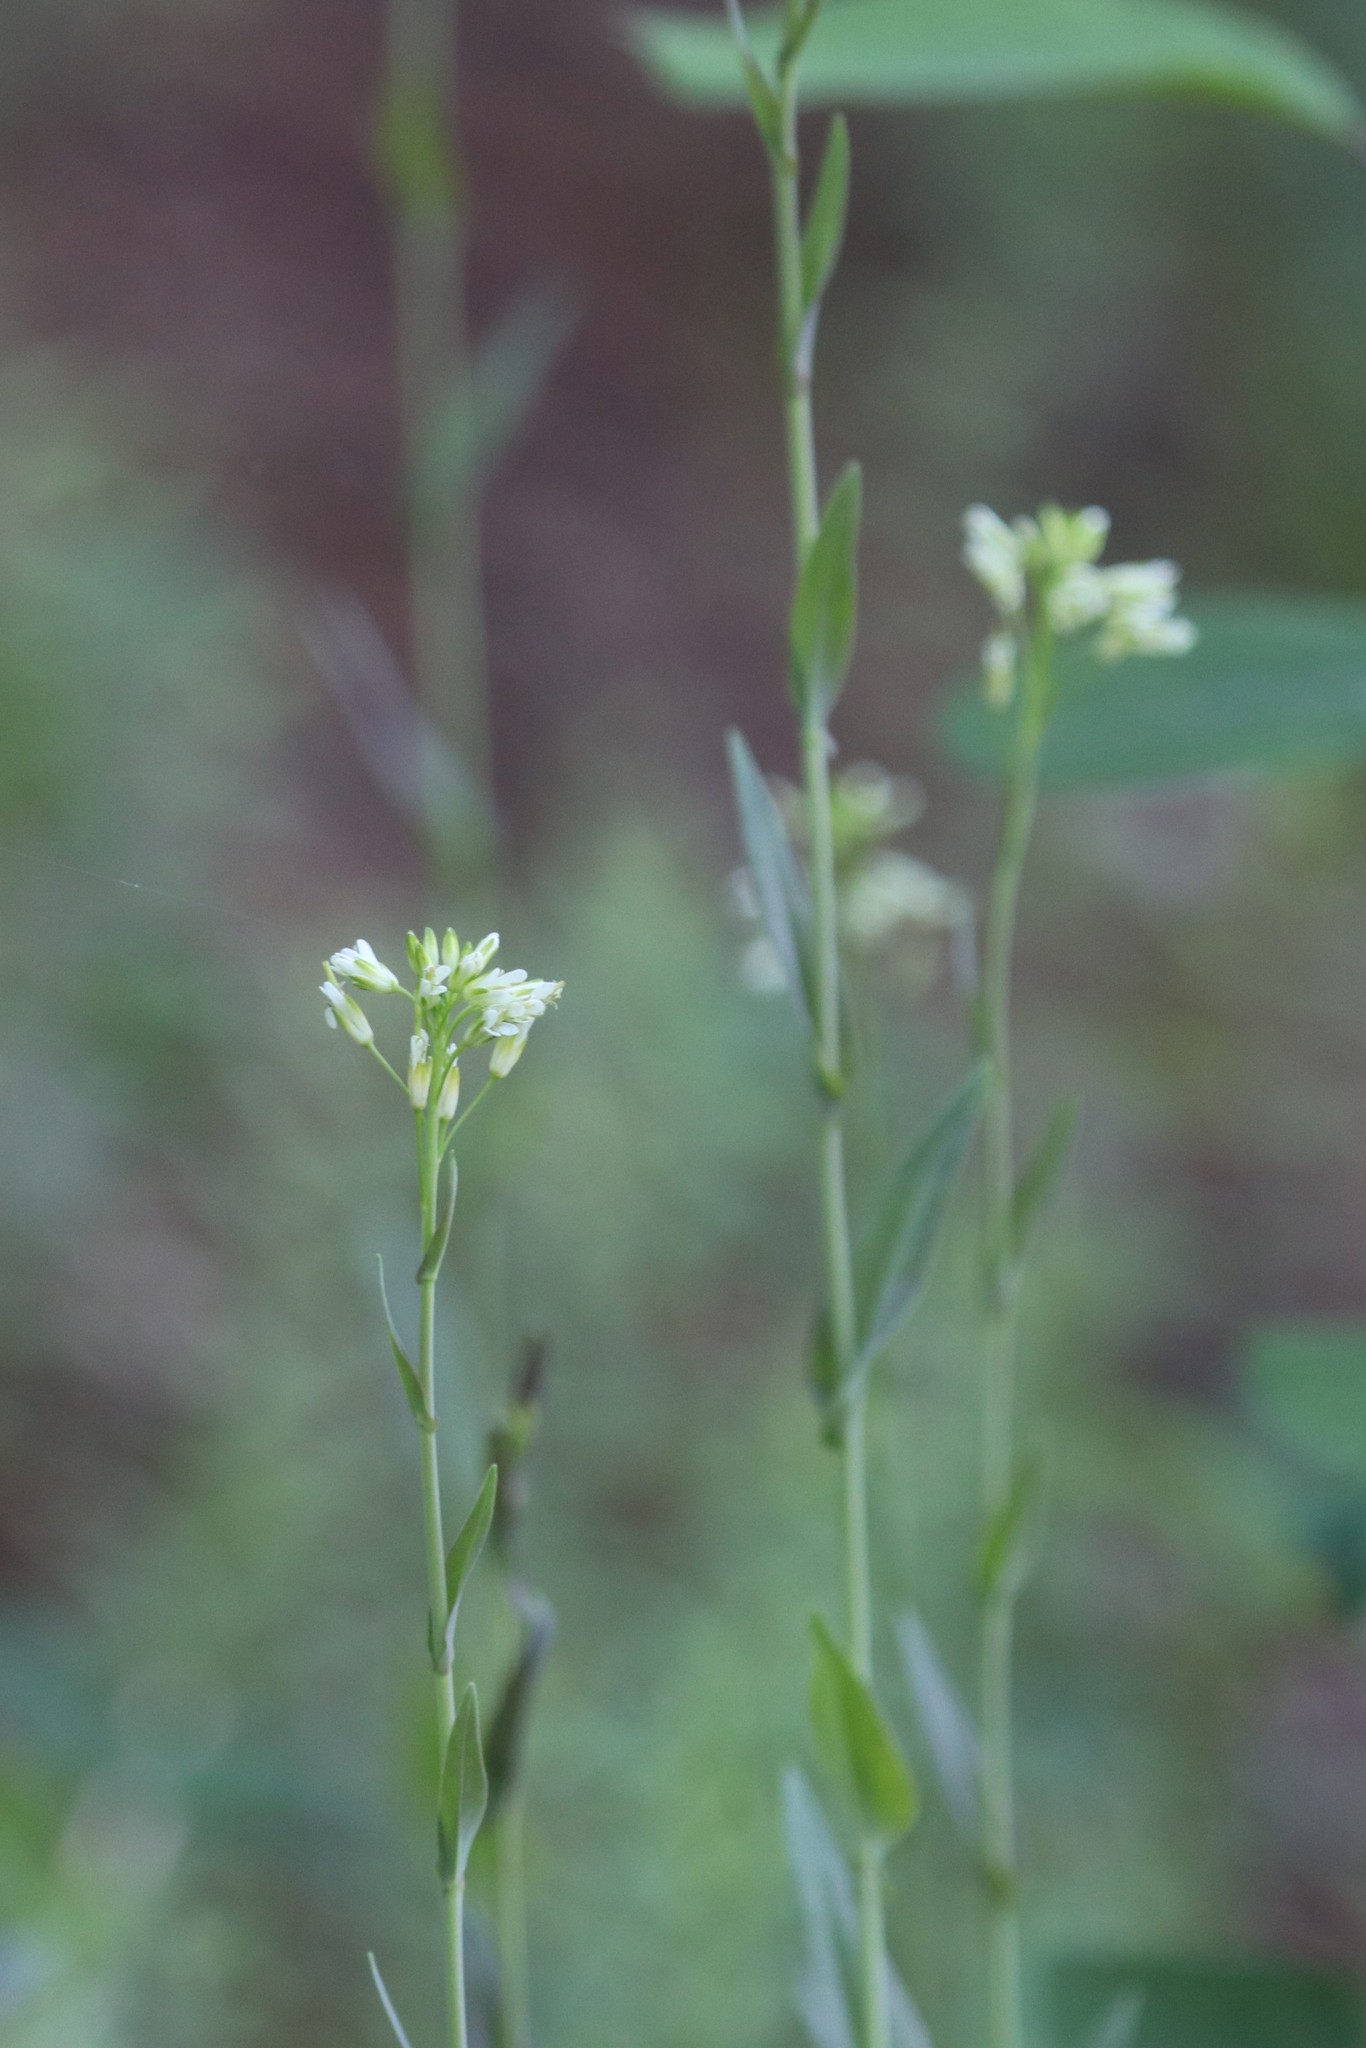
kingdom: Plantae
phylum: Tracheophyta
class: Magnoliopsida
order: Brassicales
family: Brassicaceae
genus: Turritis
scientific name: Turritis glabra
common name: Tower rockcress
